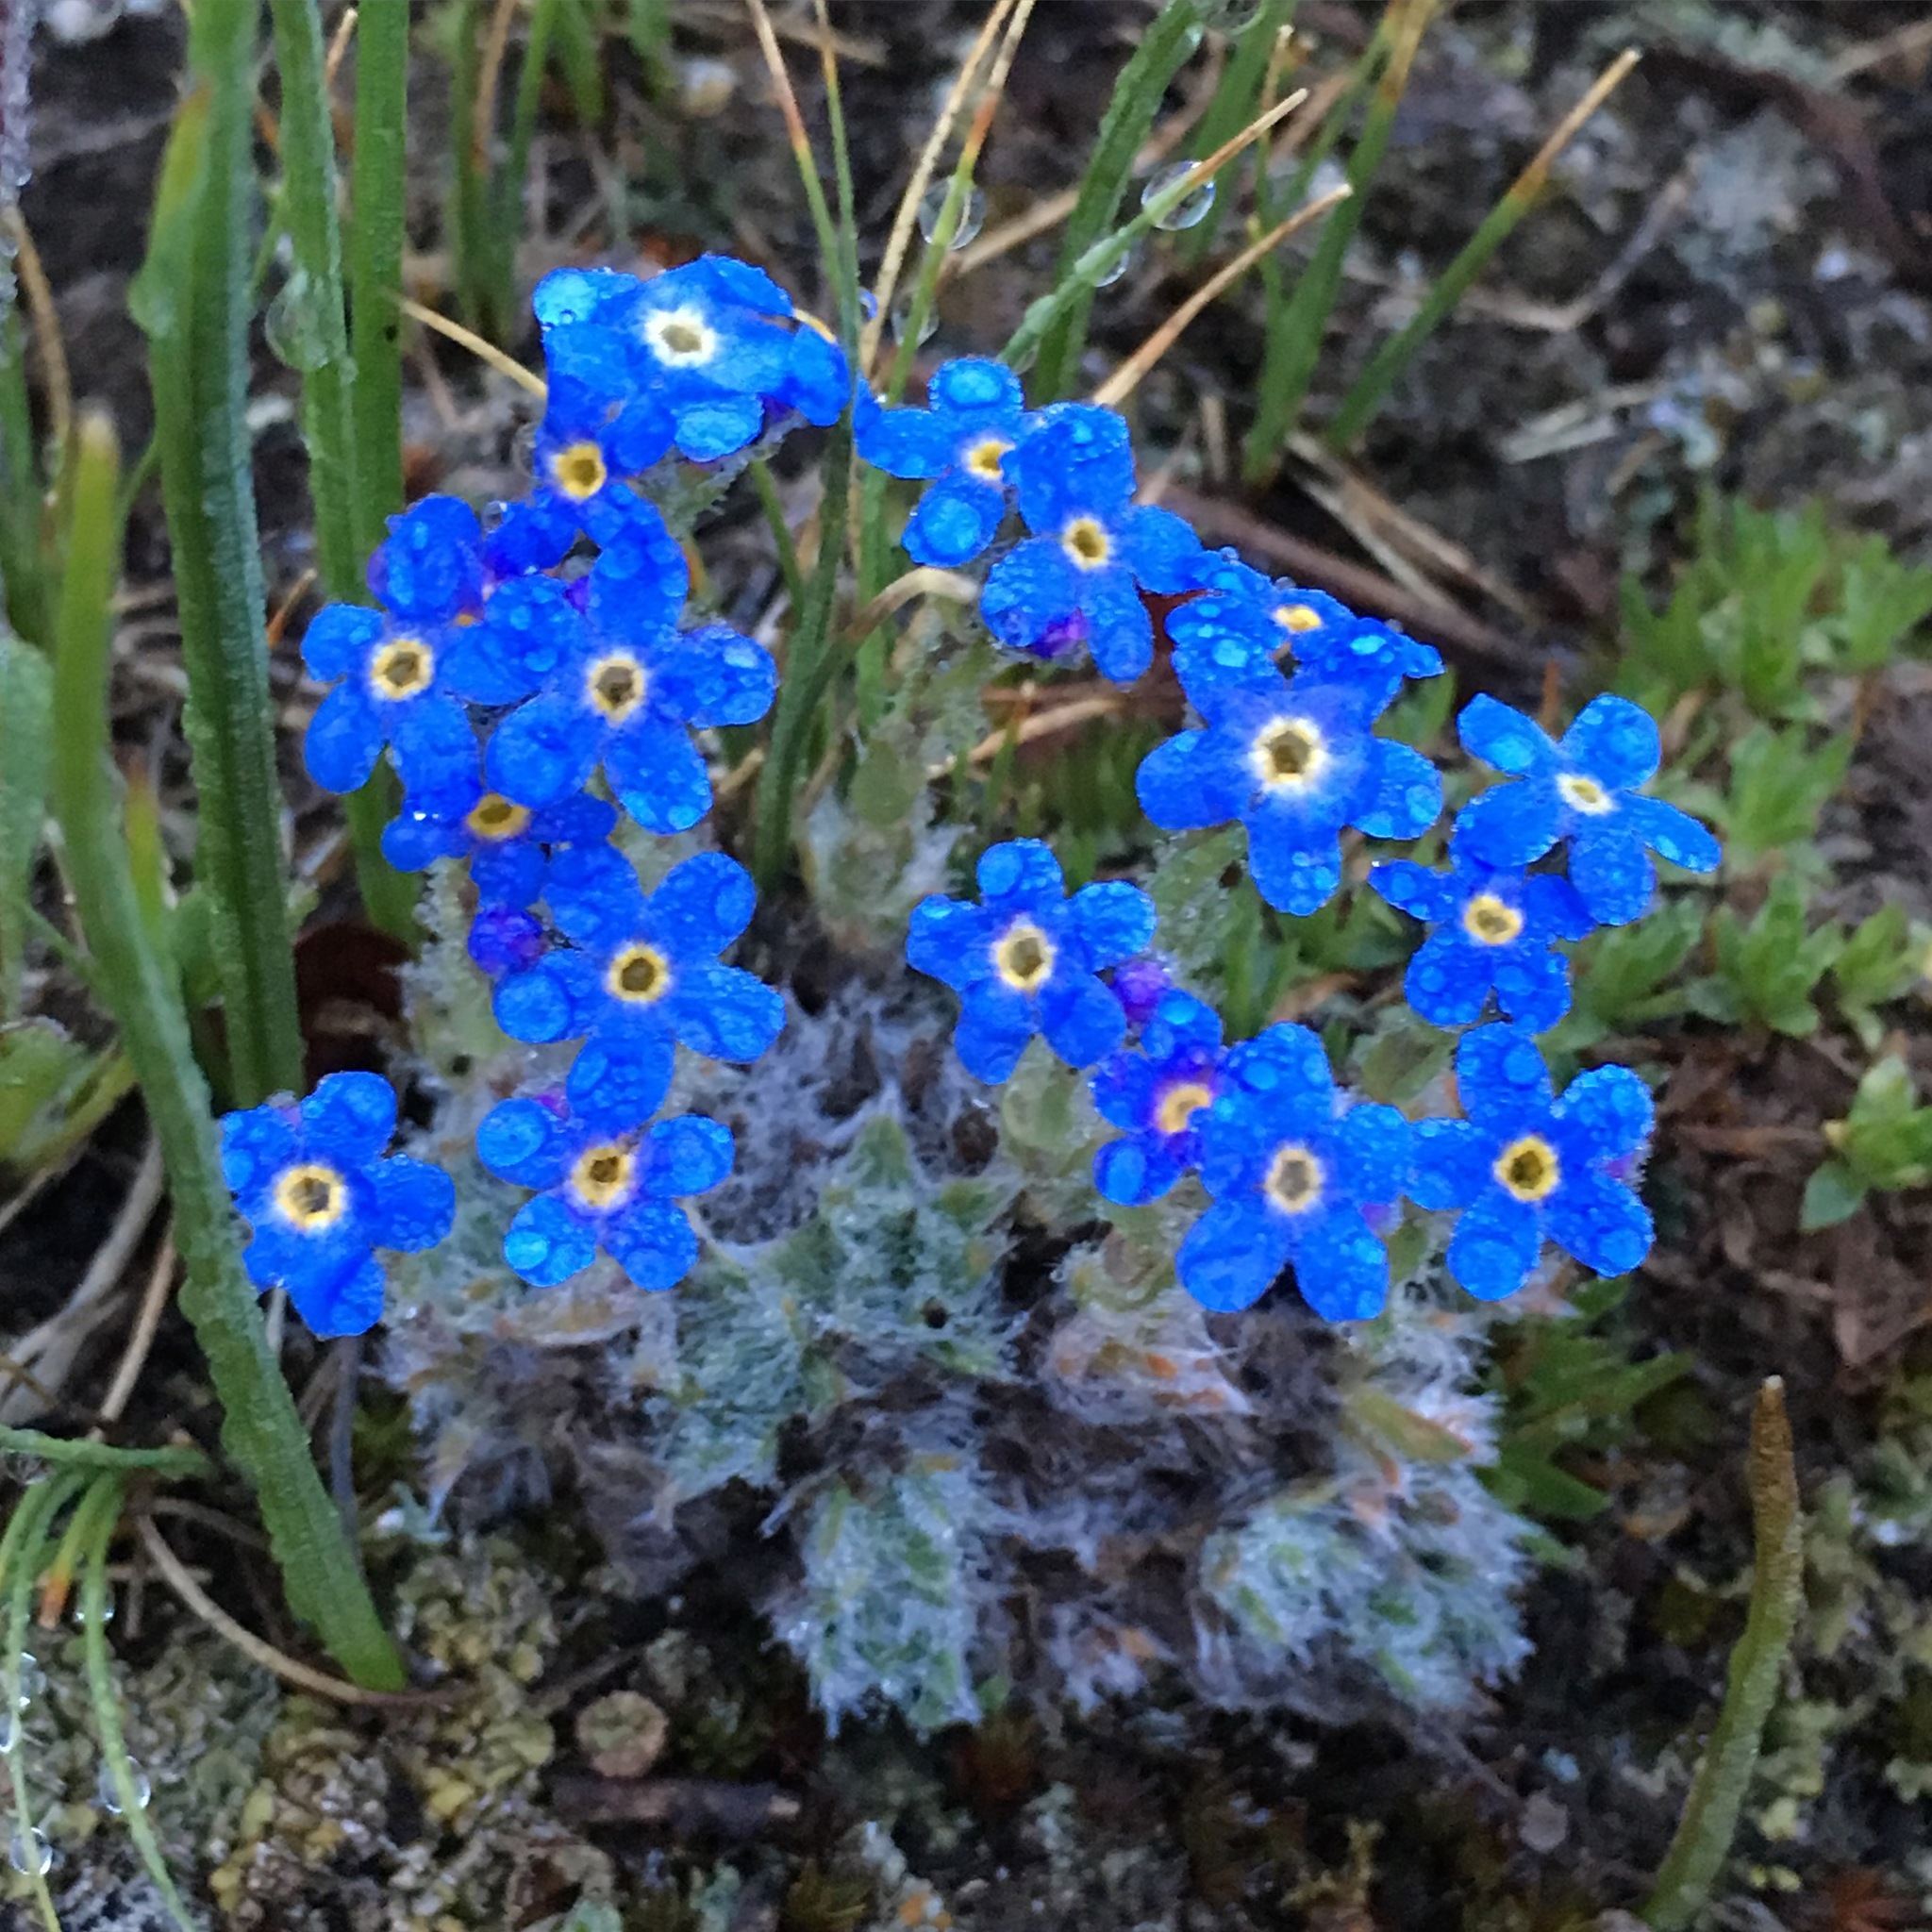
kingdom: Plantae
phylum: Tracheophyta
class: Magnoliopsida
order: Boraginales
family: Boraginaceae
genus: Eritrichium
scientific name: Eritrichium argenteum
